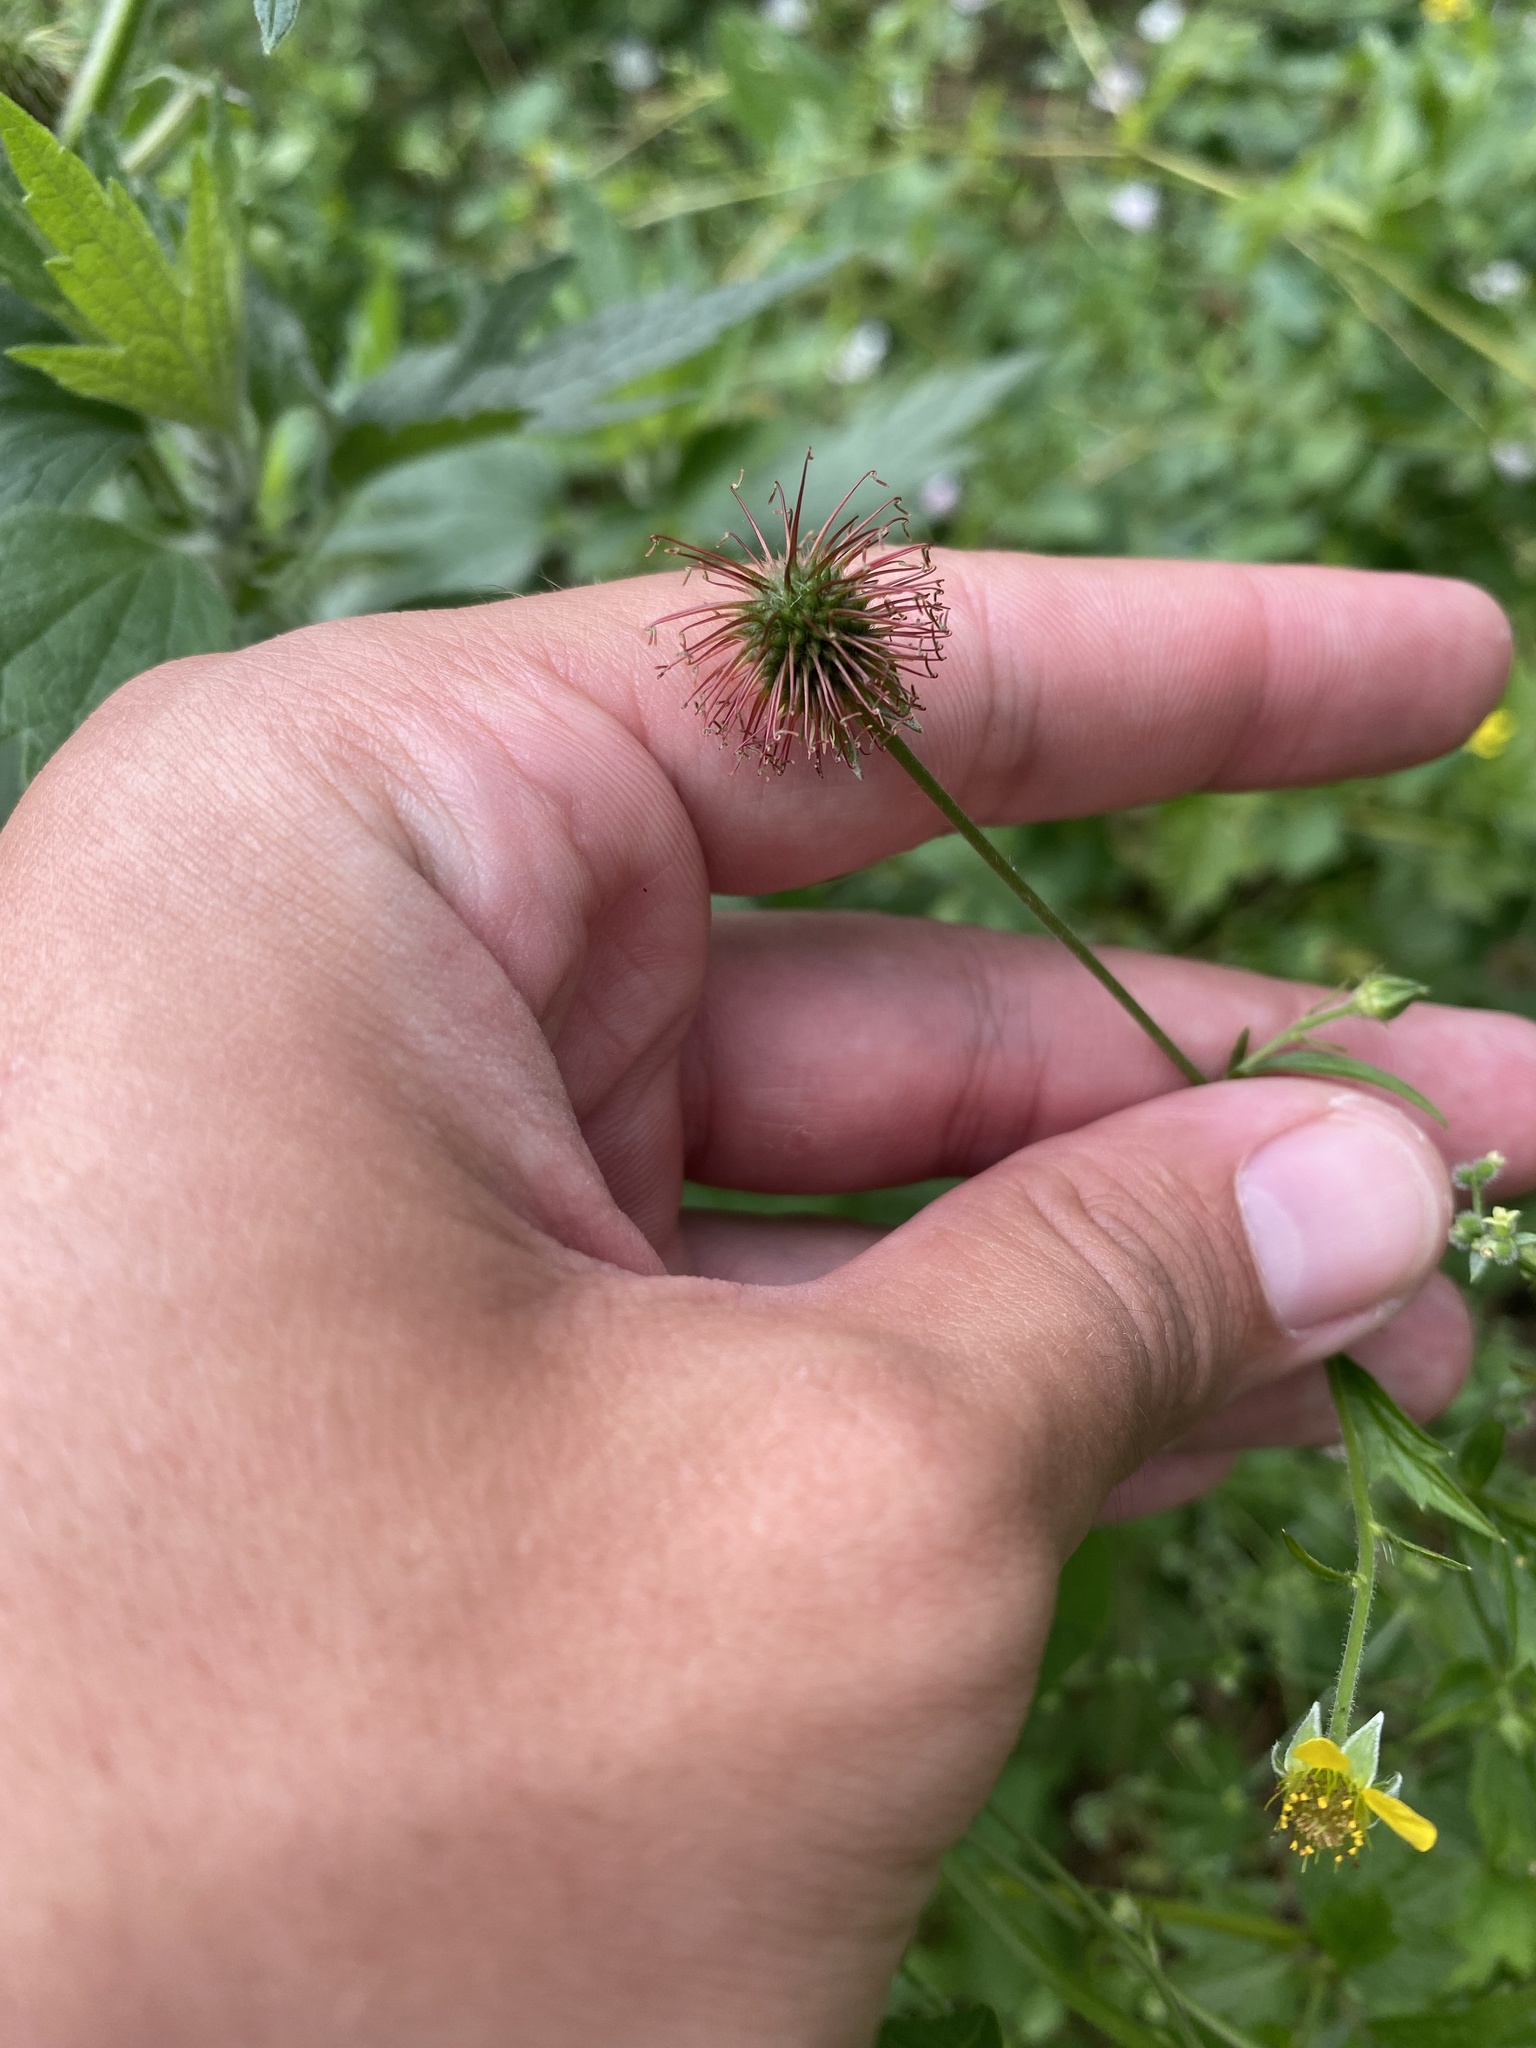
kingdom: Plantae
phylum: Tracheophyta
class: Magnoliopsida
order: Rosales
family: Rosaceae
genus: Geum
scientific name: Geum urbanum
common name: Wood avens
